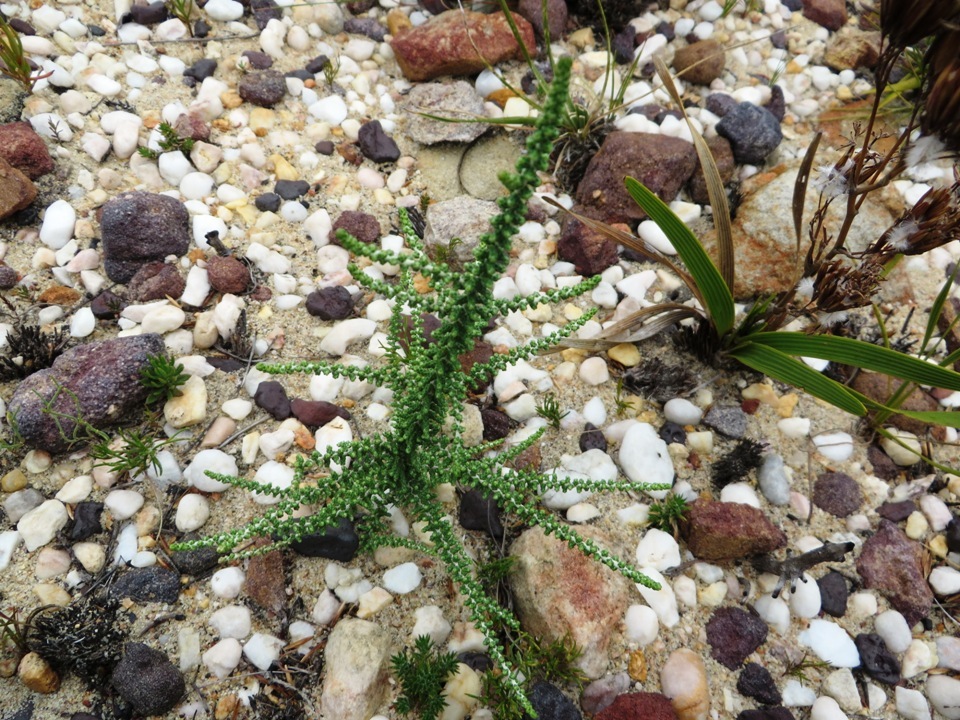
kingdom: Plantae
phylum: Tracheophyta
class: Magnoliopsida
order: Asterales
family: Asteraceae
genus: Phaenocoma
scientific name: Phaenocoma prolifera
